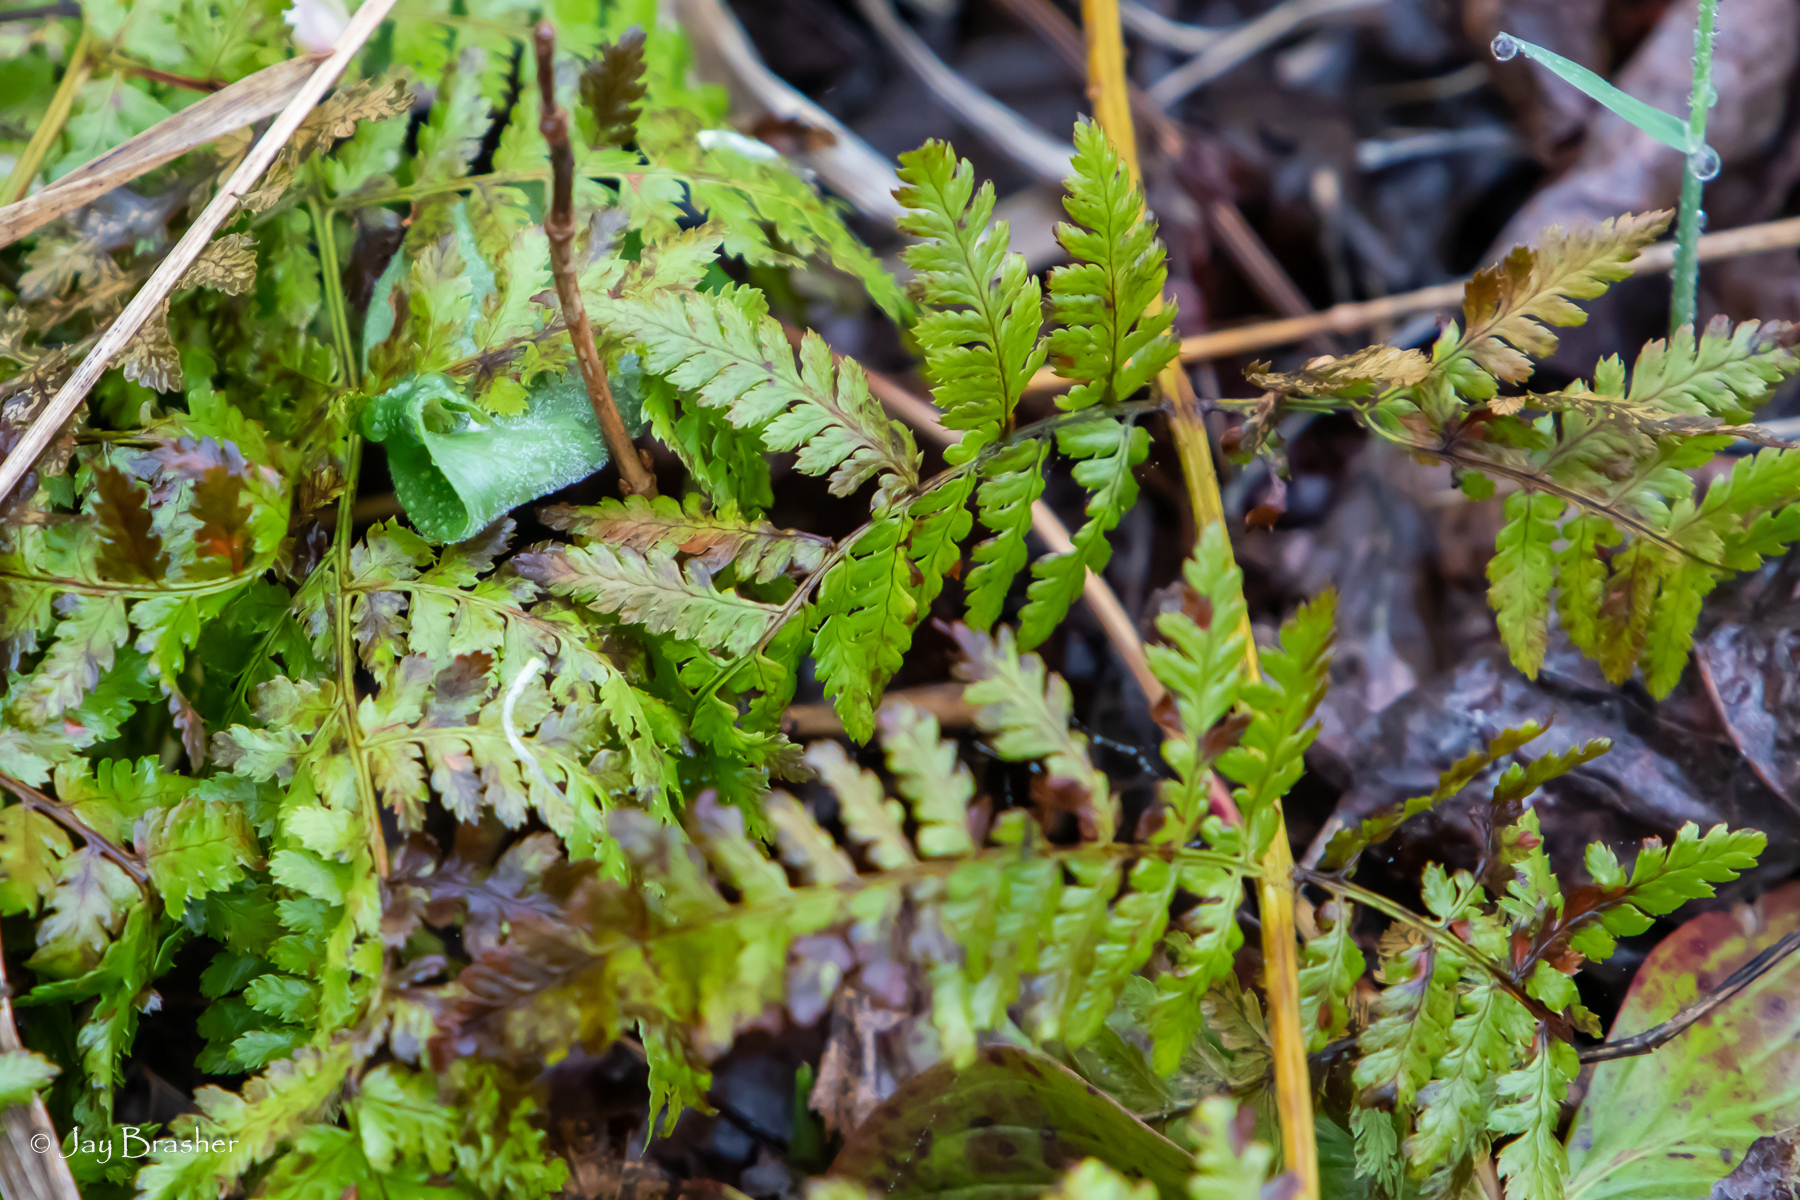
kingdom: Plantae
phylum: Tracheophyta
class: Polypodiopsida
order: Polypodiales
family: Dryopteridaceae
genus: Dryopteris
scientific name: Dryopteris carthusiana
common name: Narrow buckler-fern
